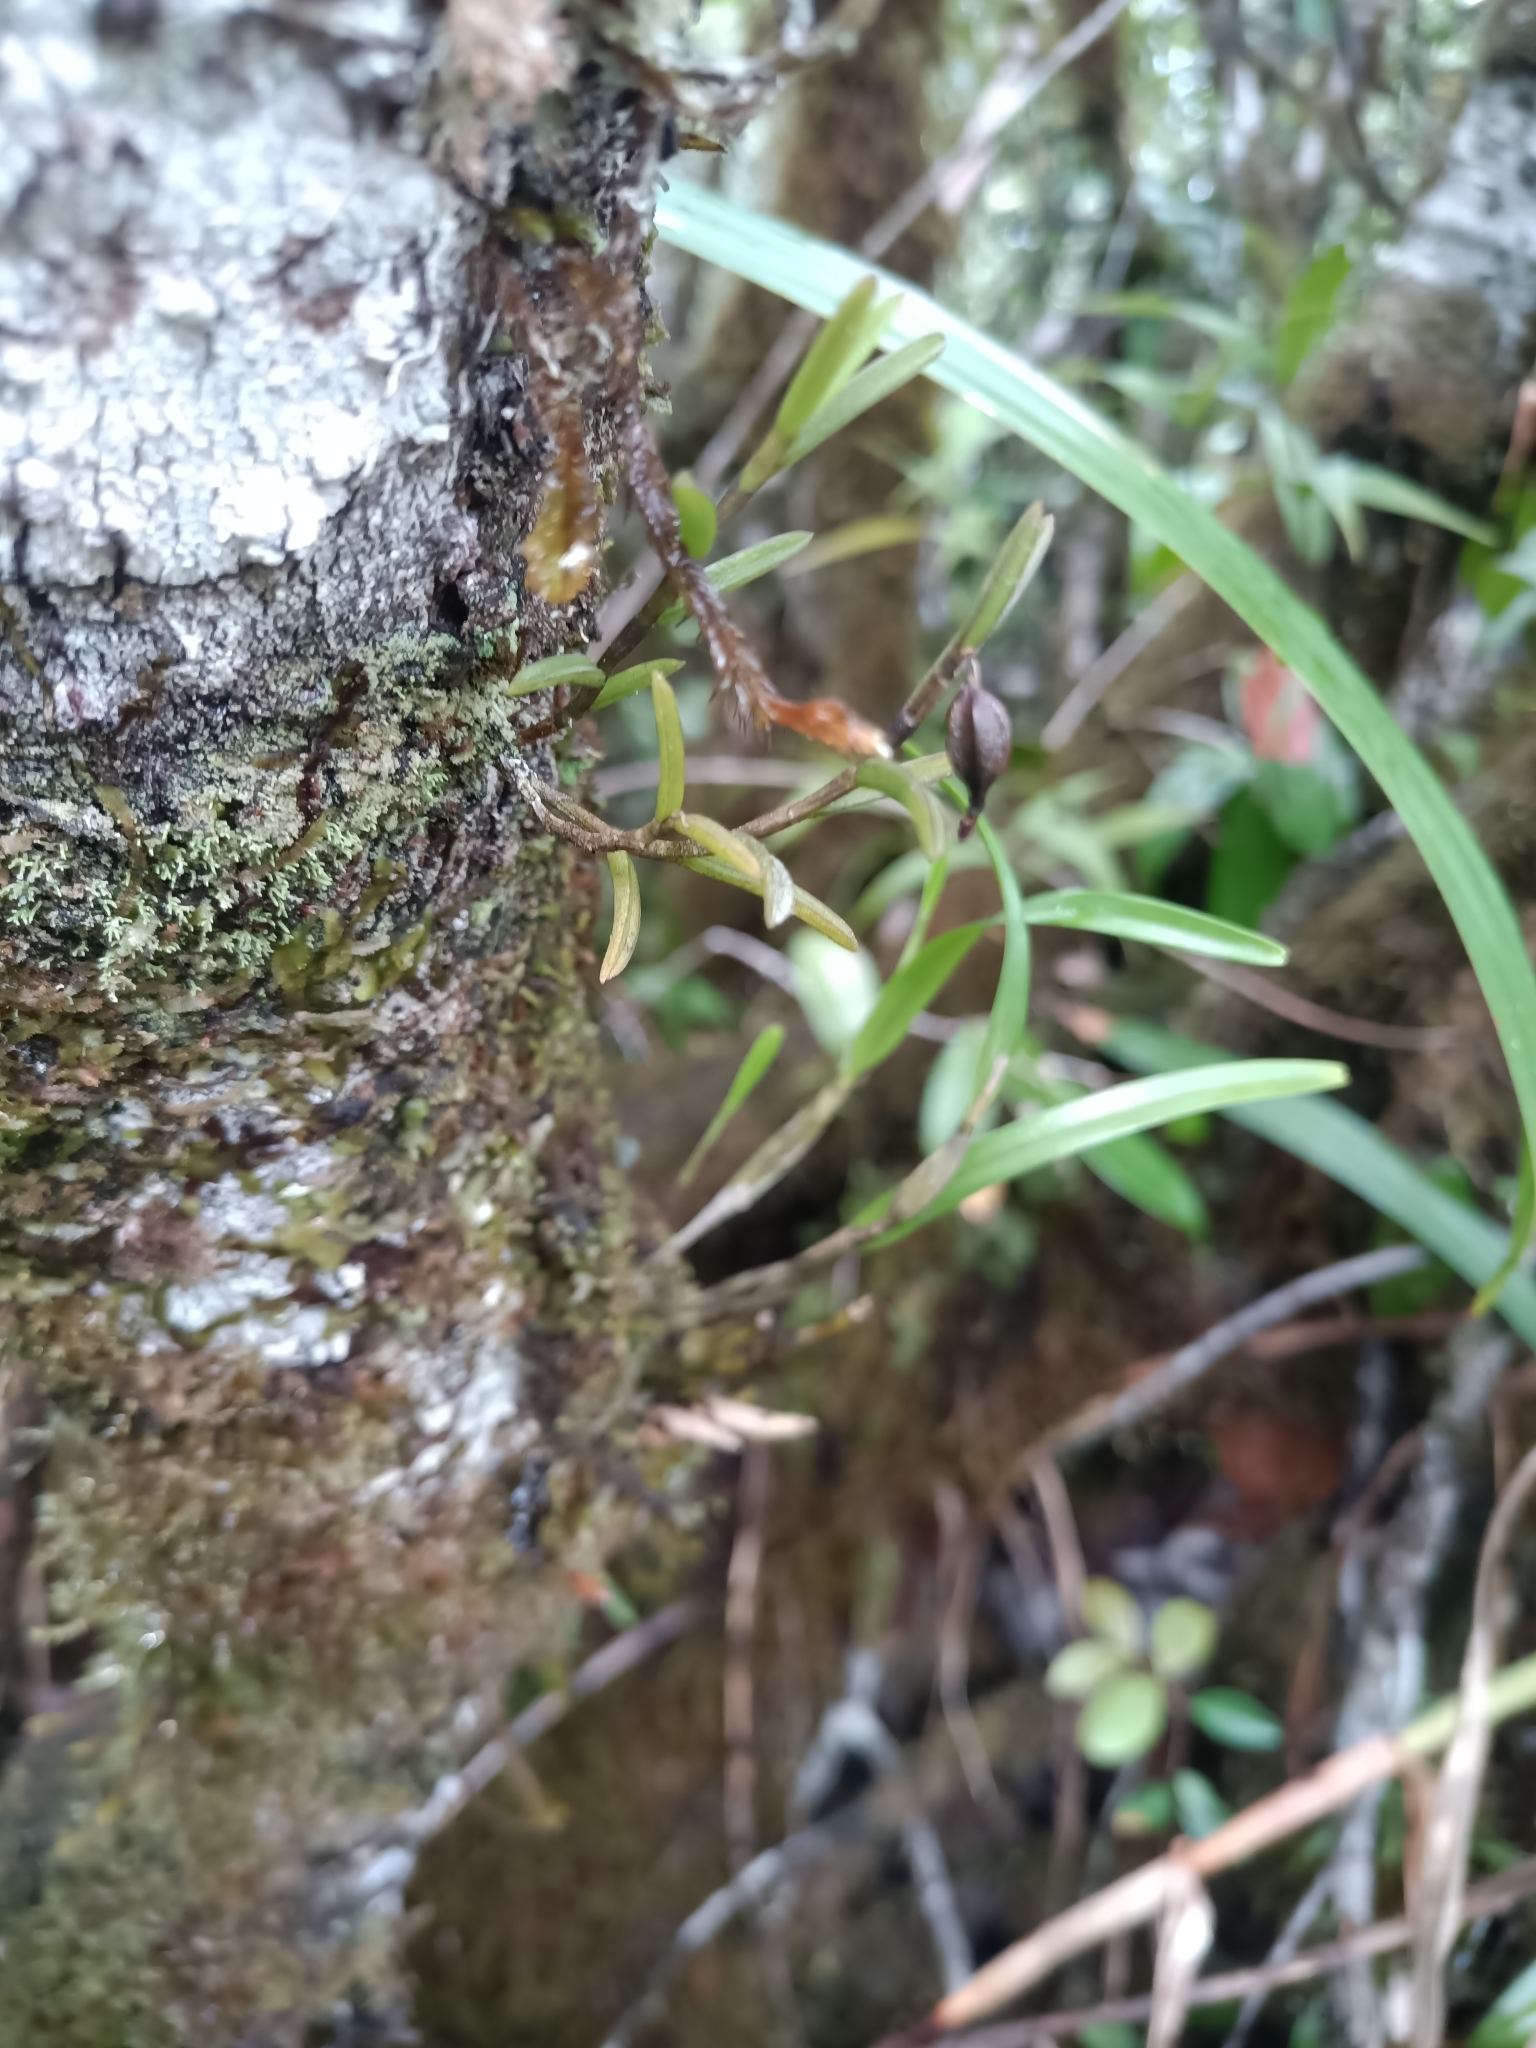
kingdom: Plantae
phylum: Tracheophyta
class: Liliopsida
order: Asparagales
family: Orchidaceae
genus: Jacquiniella
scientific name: Jacquiniella globosa
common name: Redblotch tufted orchid
